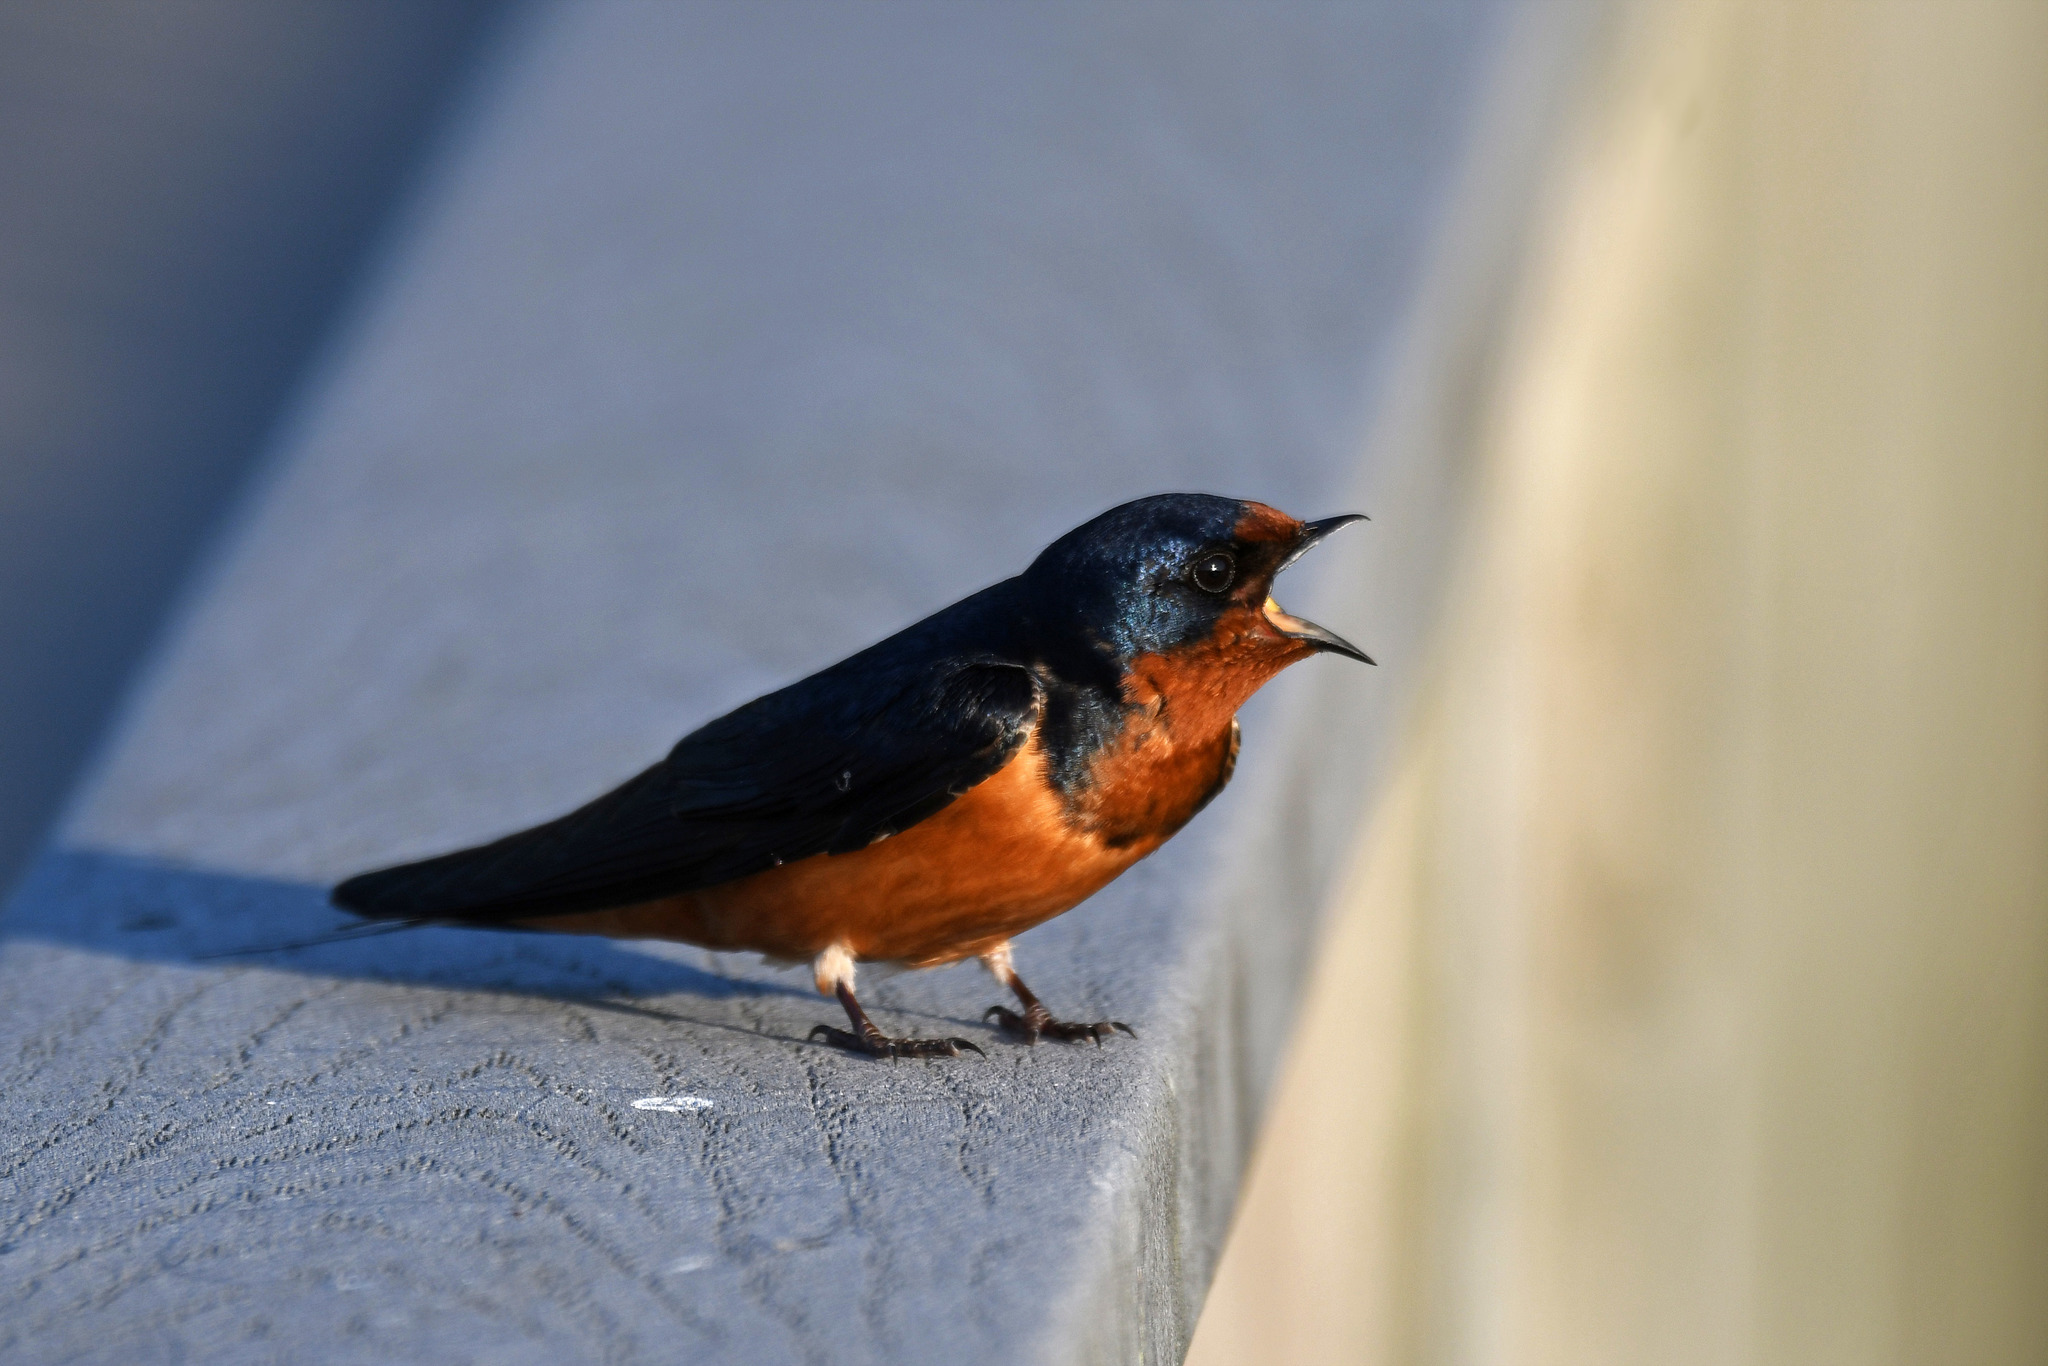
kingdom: Animalia
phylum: Chordata
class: Aves
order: Passeriformes
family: Hirundinidae
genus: Hirundo
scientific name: Hirundo rustica
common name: Barn swallow
